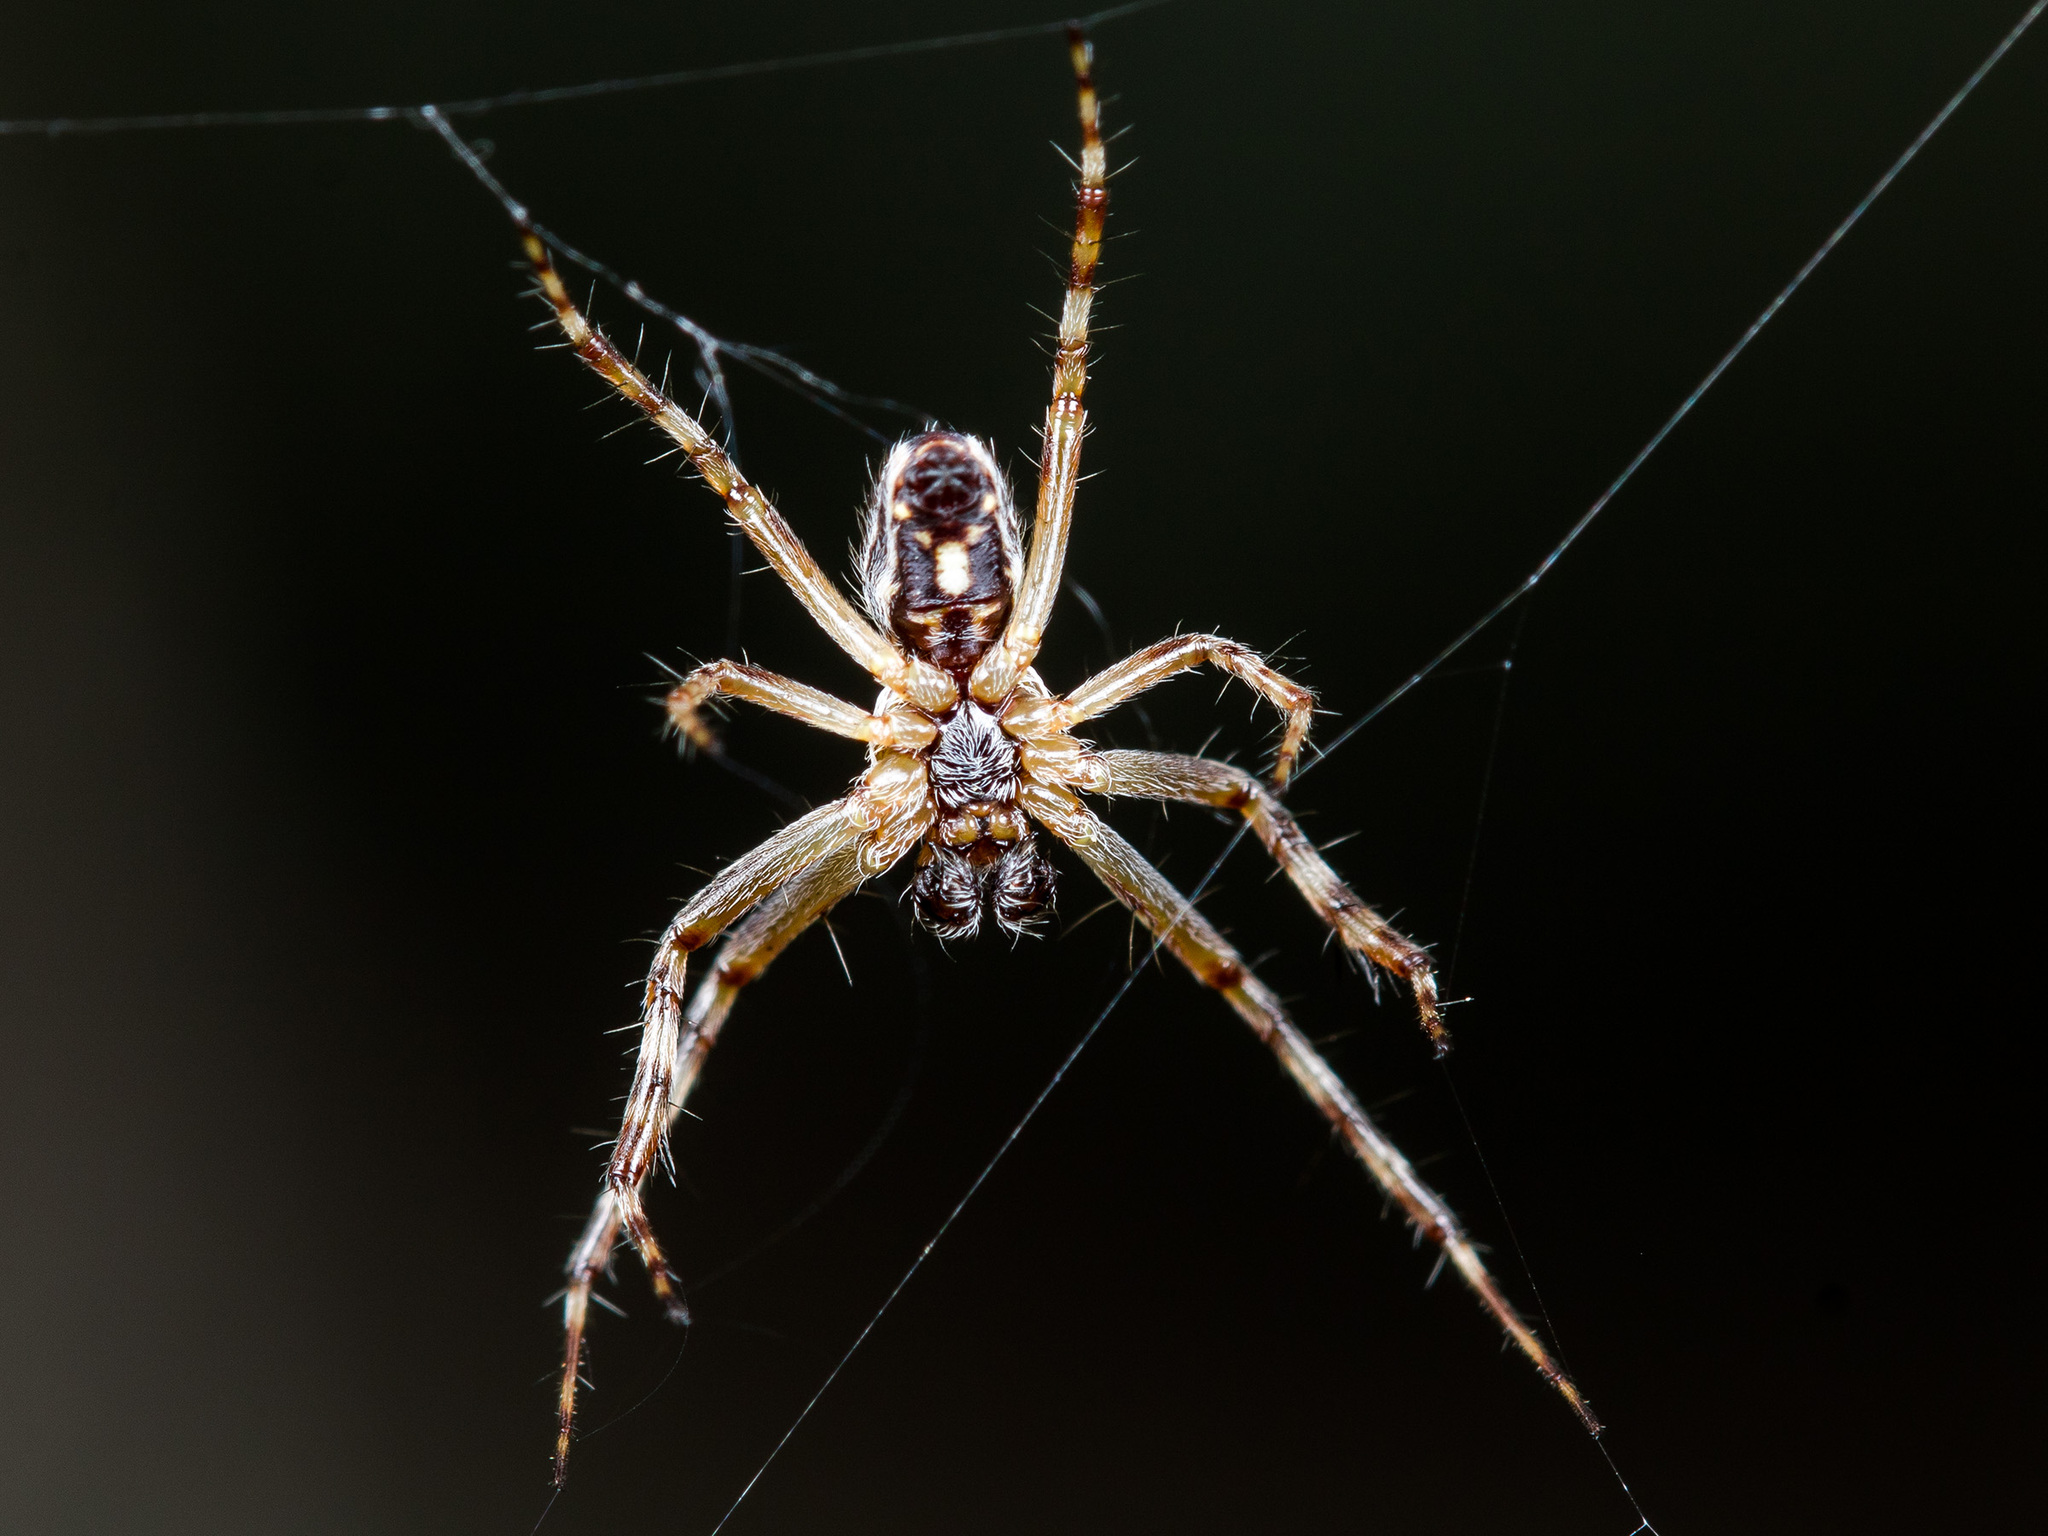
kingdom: Animalia
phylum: Arthropoda
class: Arachnida
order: Araneae
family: Araneidae
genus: Aculepeira
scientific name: Aculepeira armida
